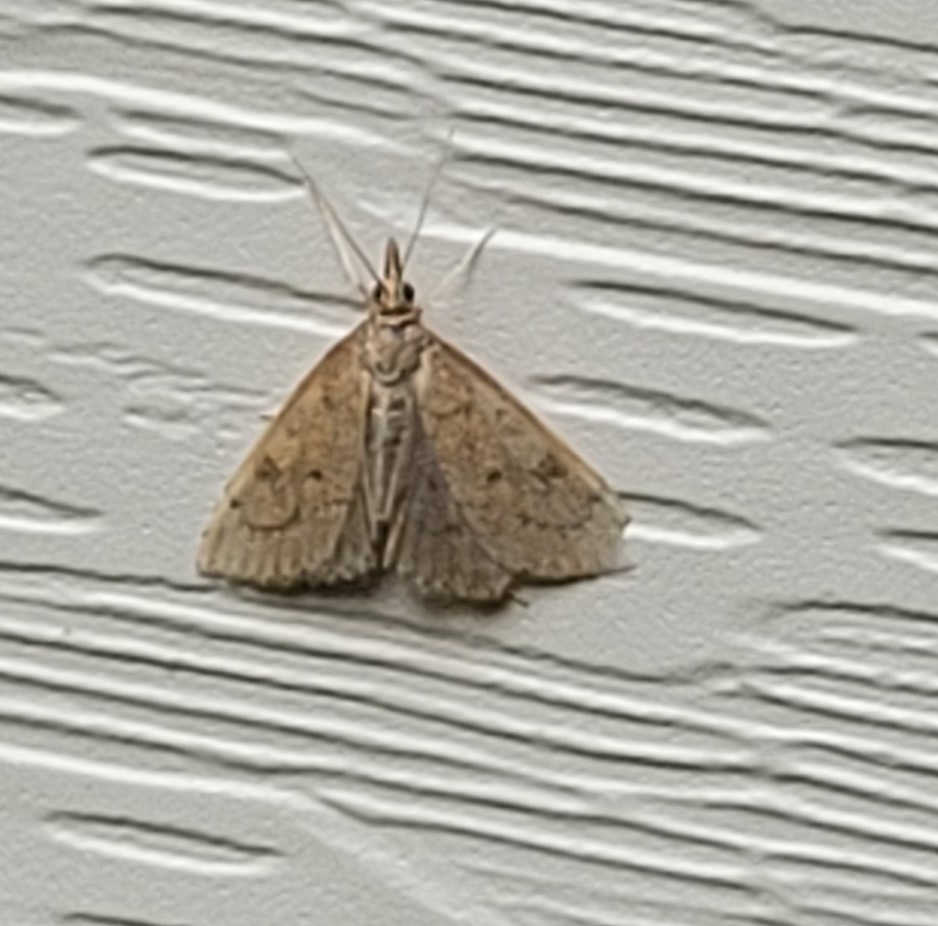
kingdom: Animalia
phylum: Arthropoda
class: Insecta
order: Lepidoptera
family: Crambidae
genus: Udea
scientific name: Udea rubigalis
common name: Celery leaftier moth
